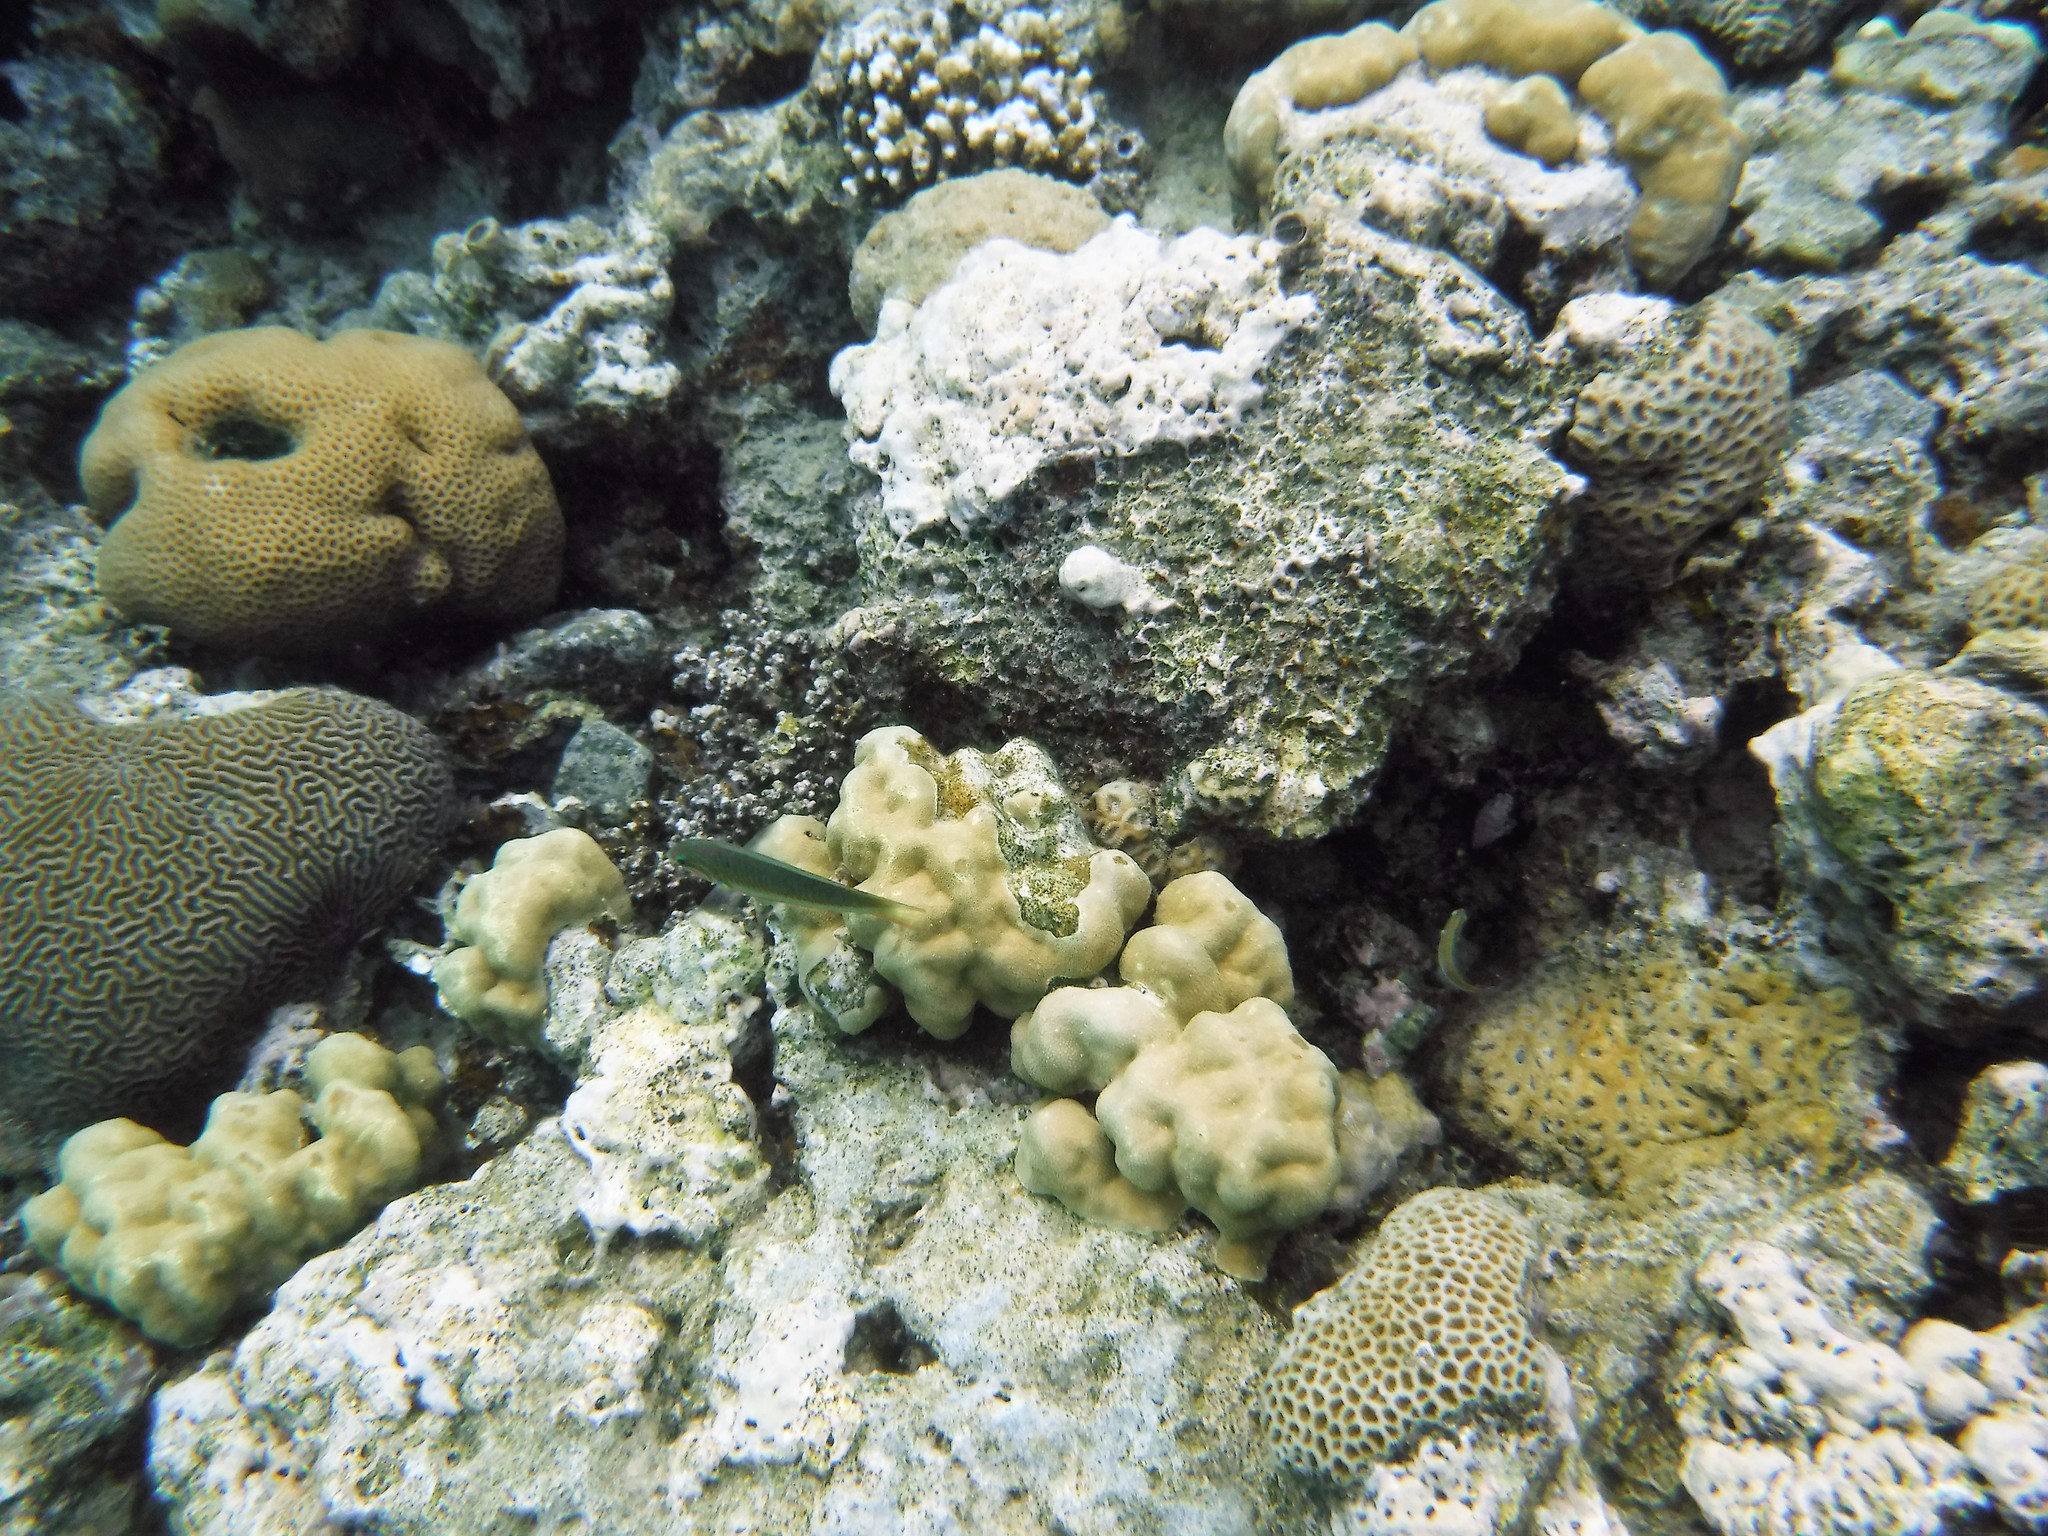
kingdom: Animalia
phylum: Chordata
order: Perciformes
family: Labridae
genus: Thalassoma
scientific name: Thalassoma rueppellii
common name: Klunzinger's wrasse
